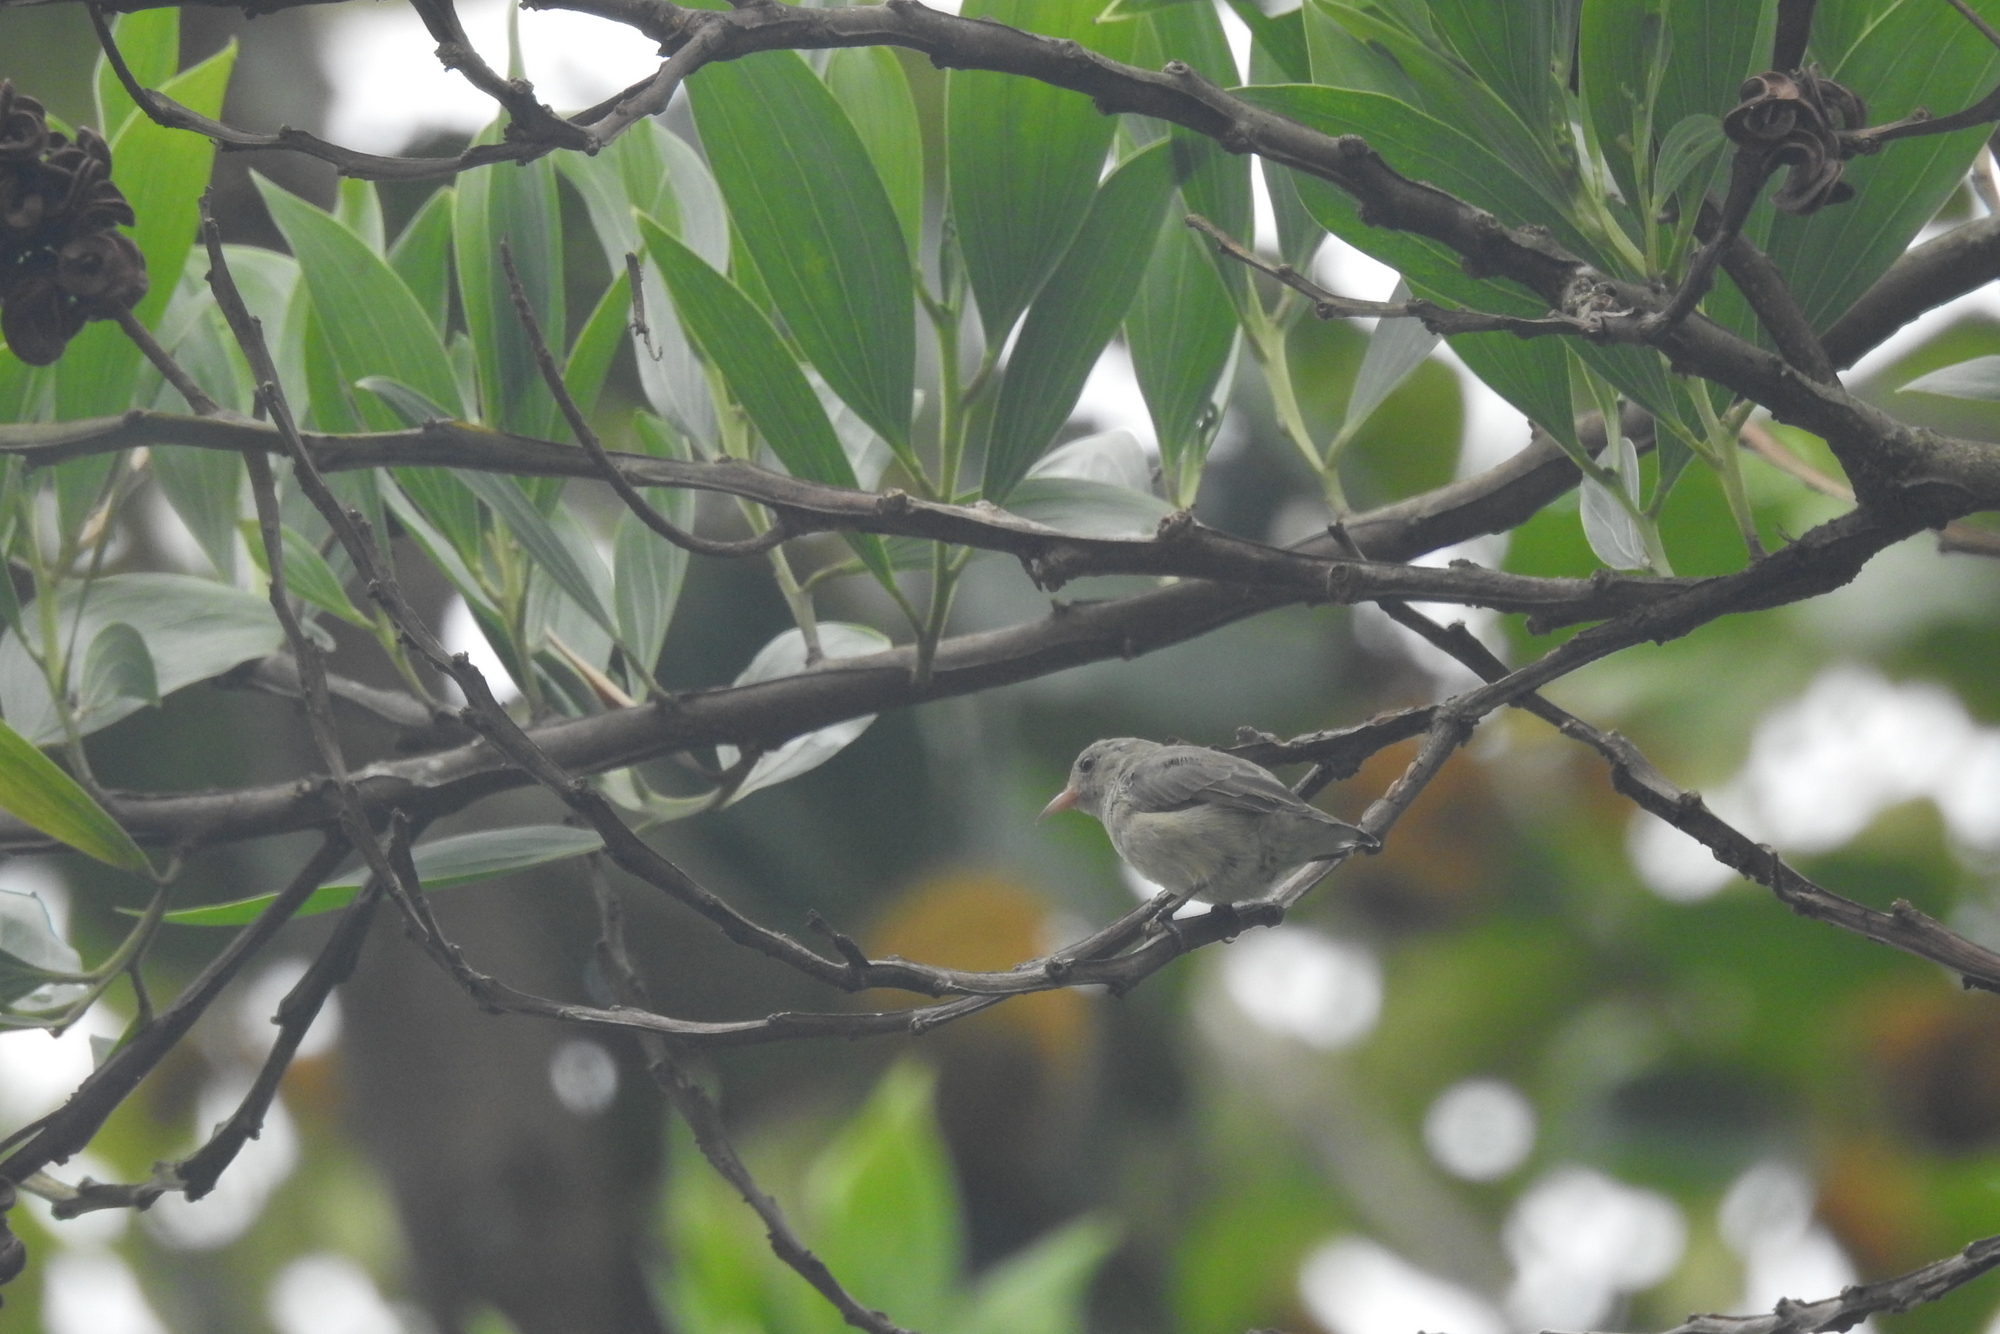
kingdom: Animalia
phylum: Chordata
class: Aves
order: Passeriformes
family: Dicaeidae
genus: Dicaeum
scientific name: Dicaeum erythrorhynchos
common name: Pale-billed flowerpecker
